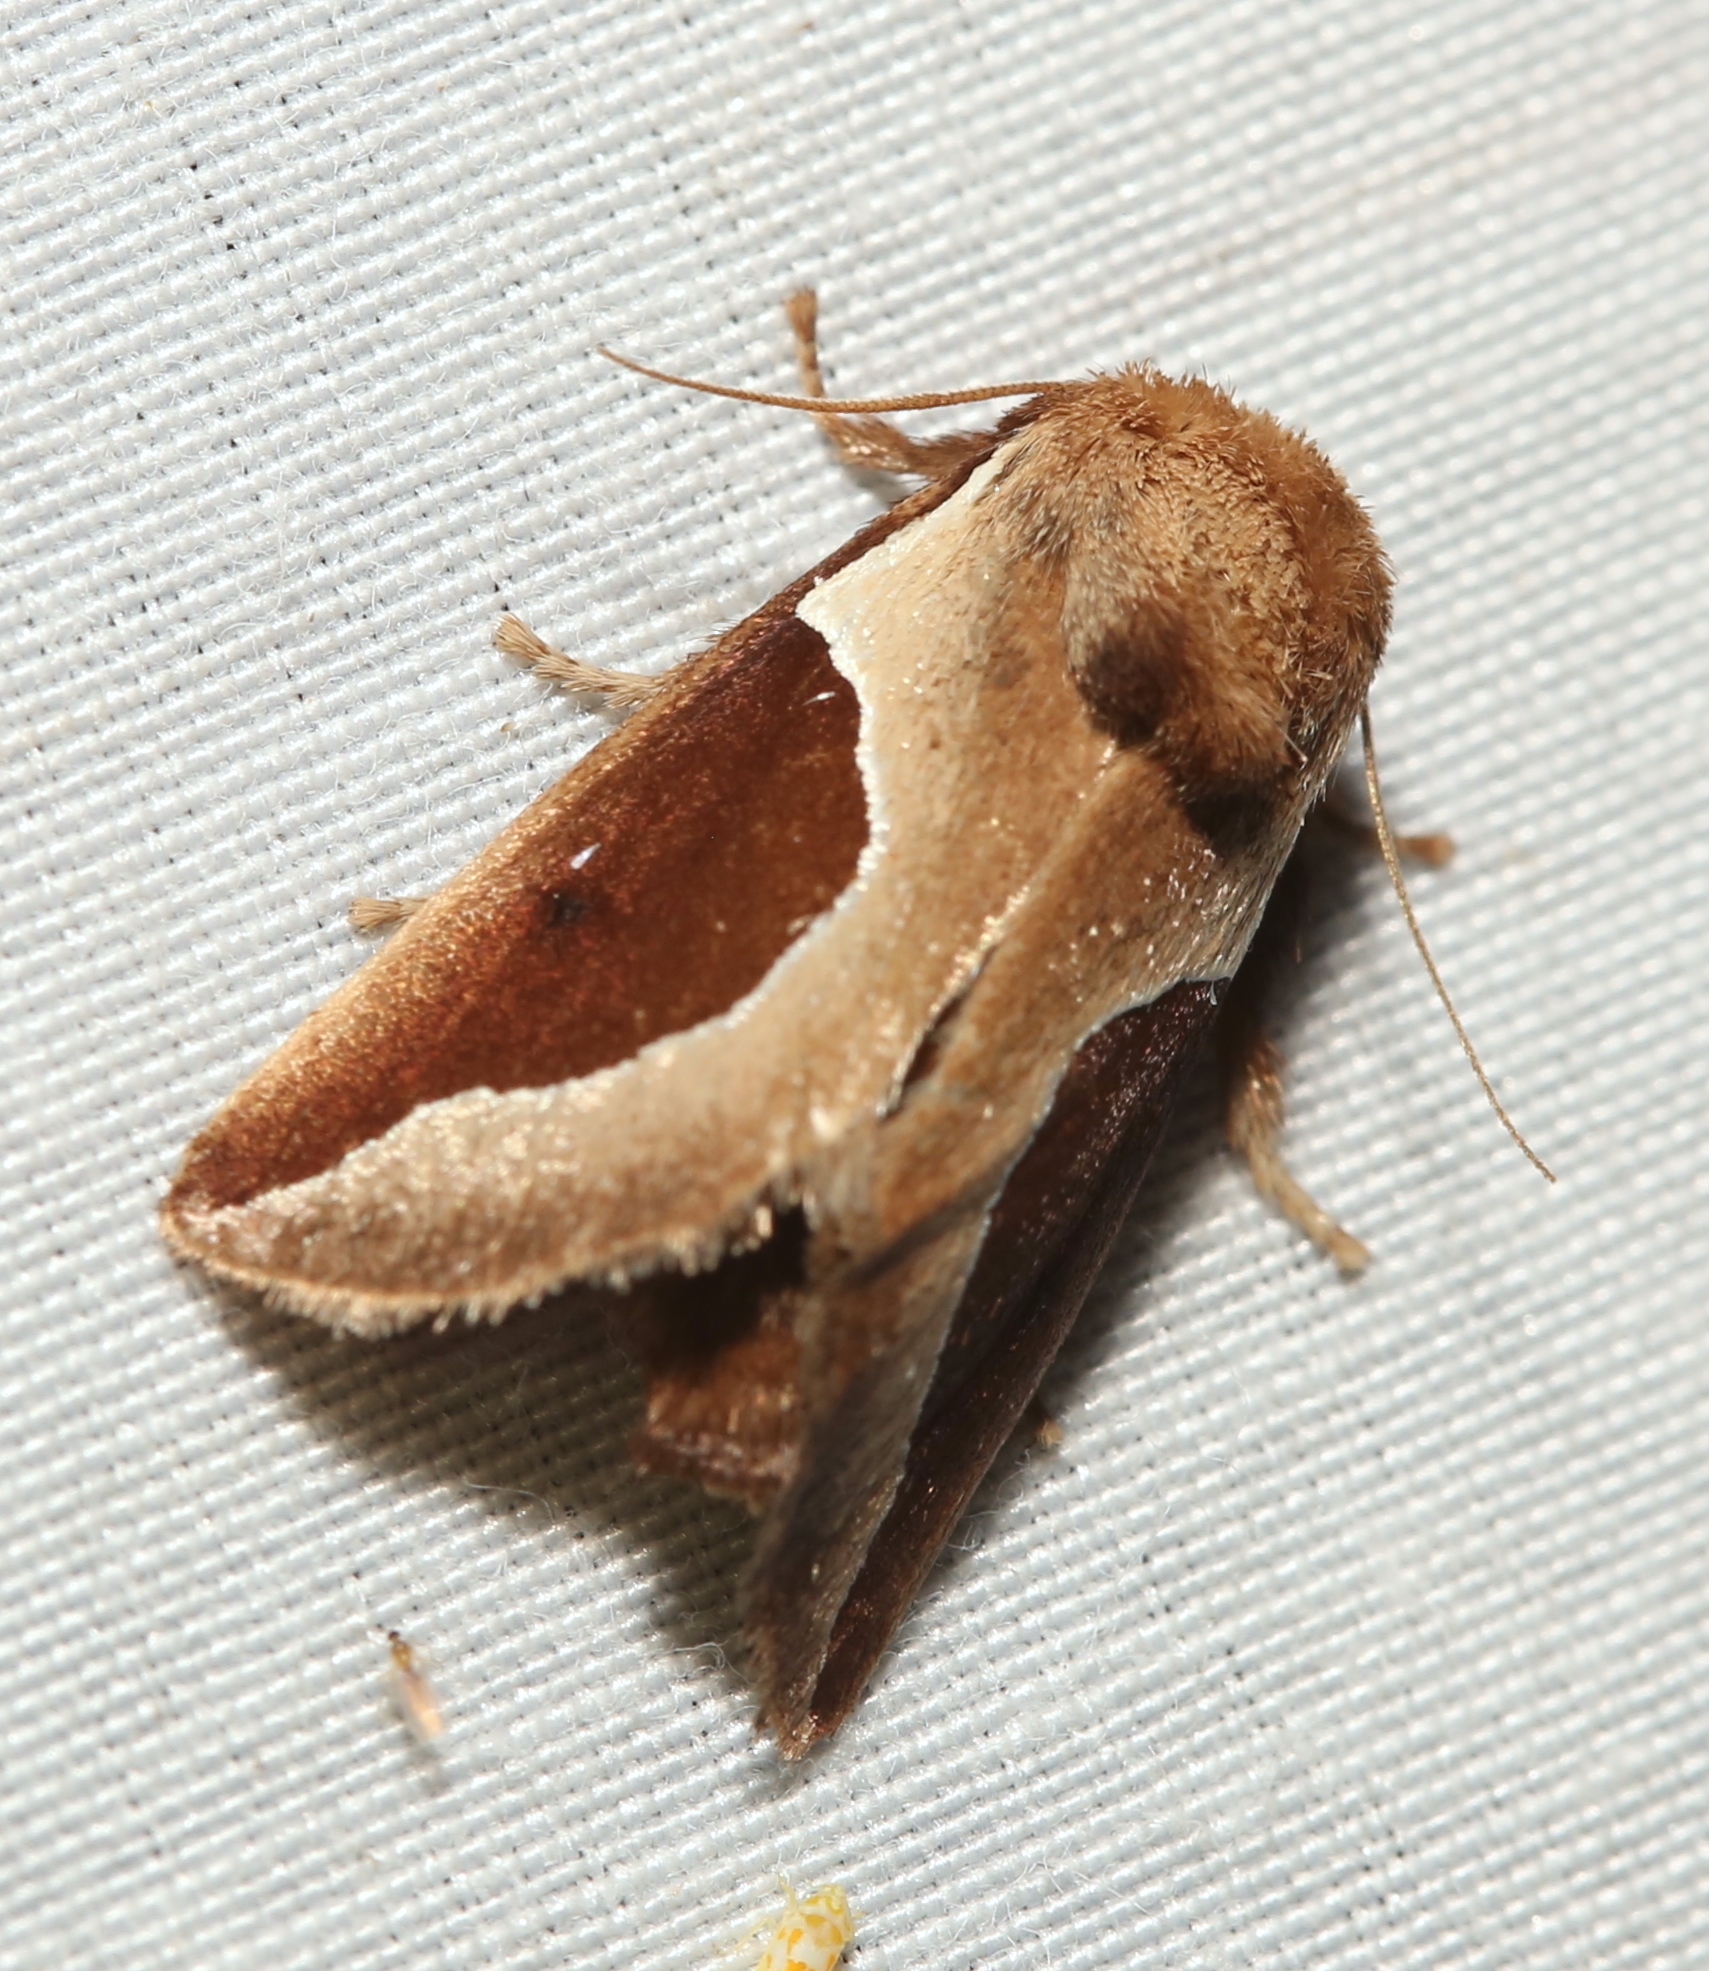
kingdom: Animalia
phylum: Arthropoda
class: Insecta
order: Lepidoptera
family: Limacodidae
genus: Prolimacodes
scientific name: Prolimacodes badia
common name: Skiff moth
